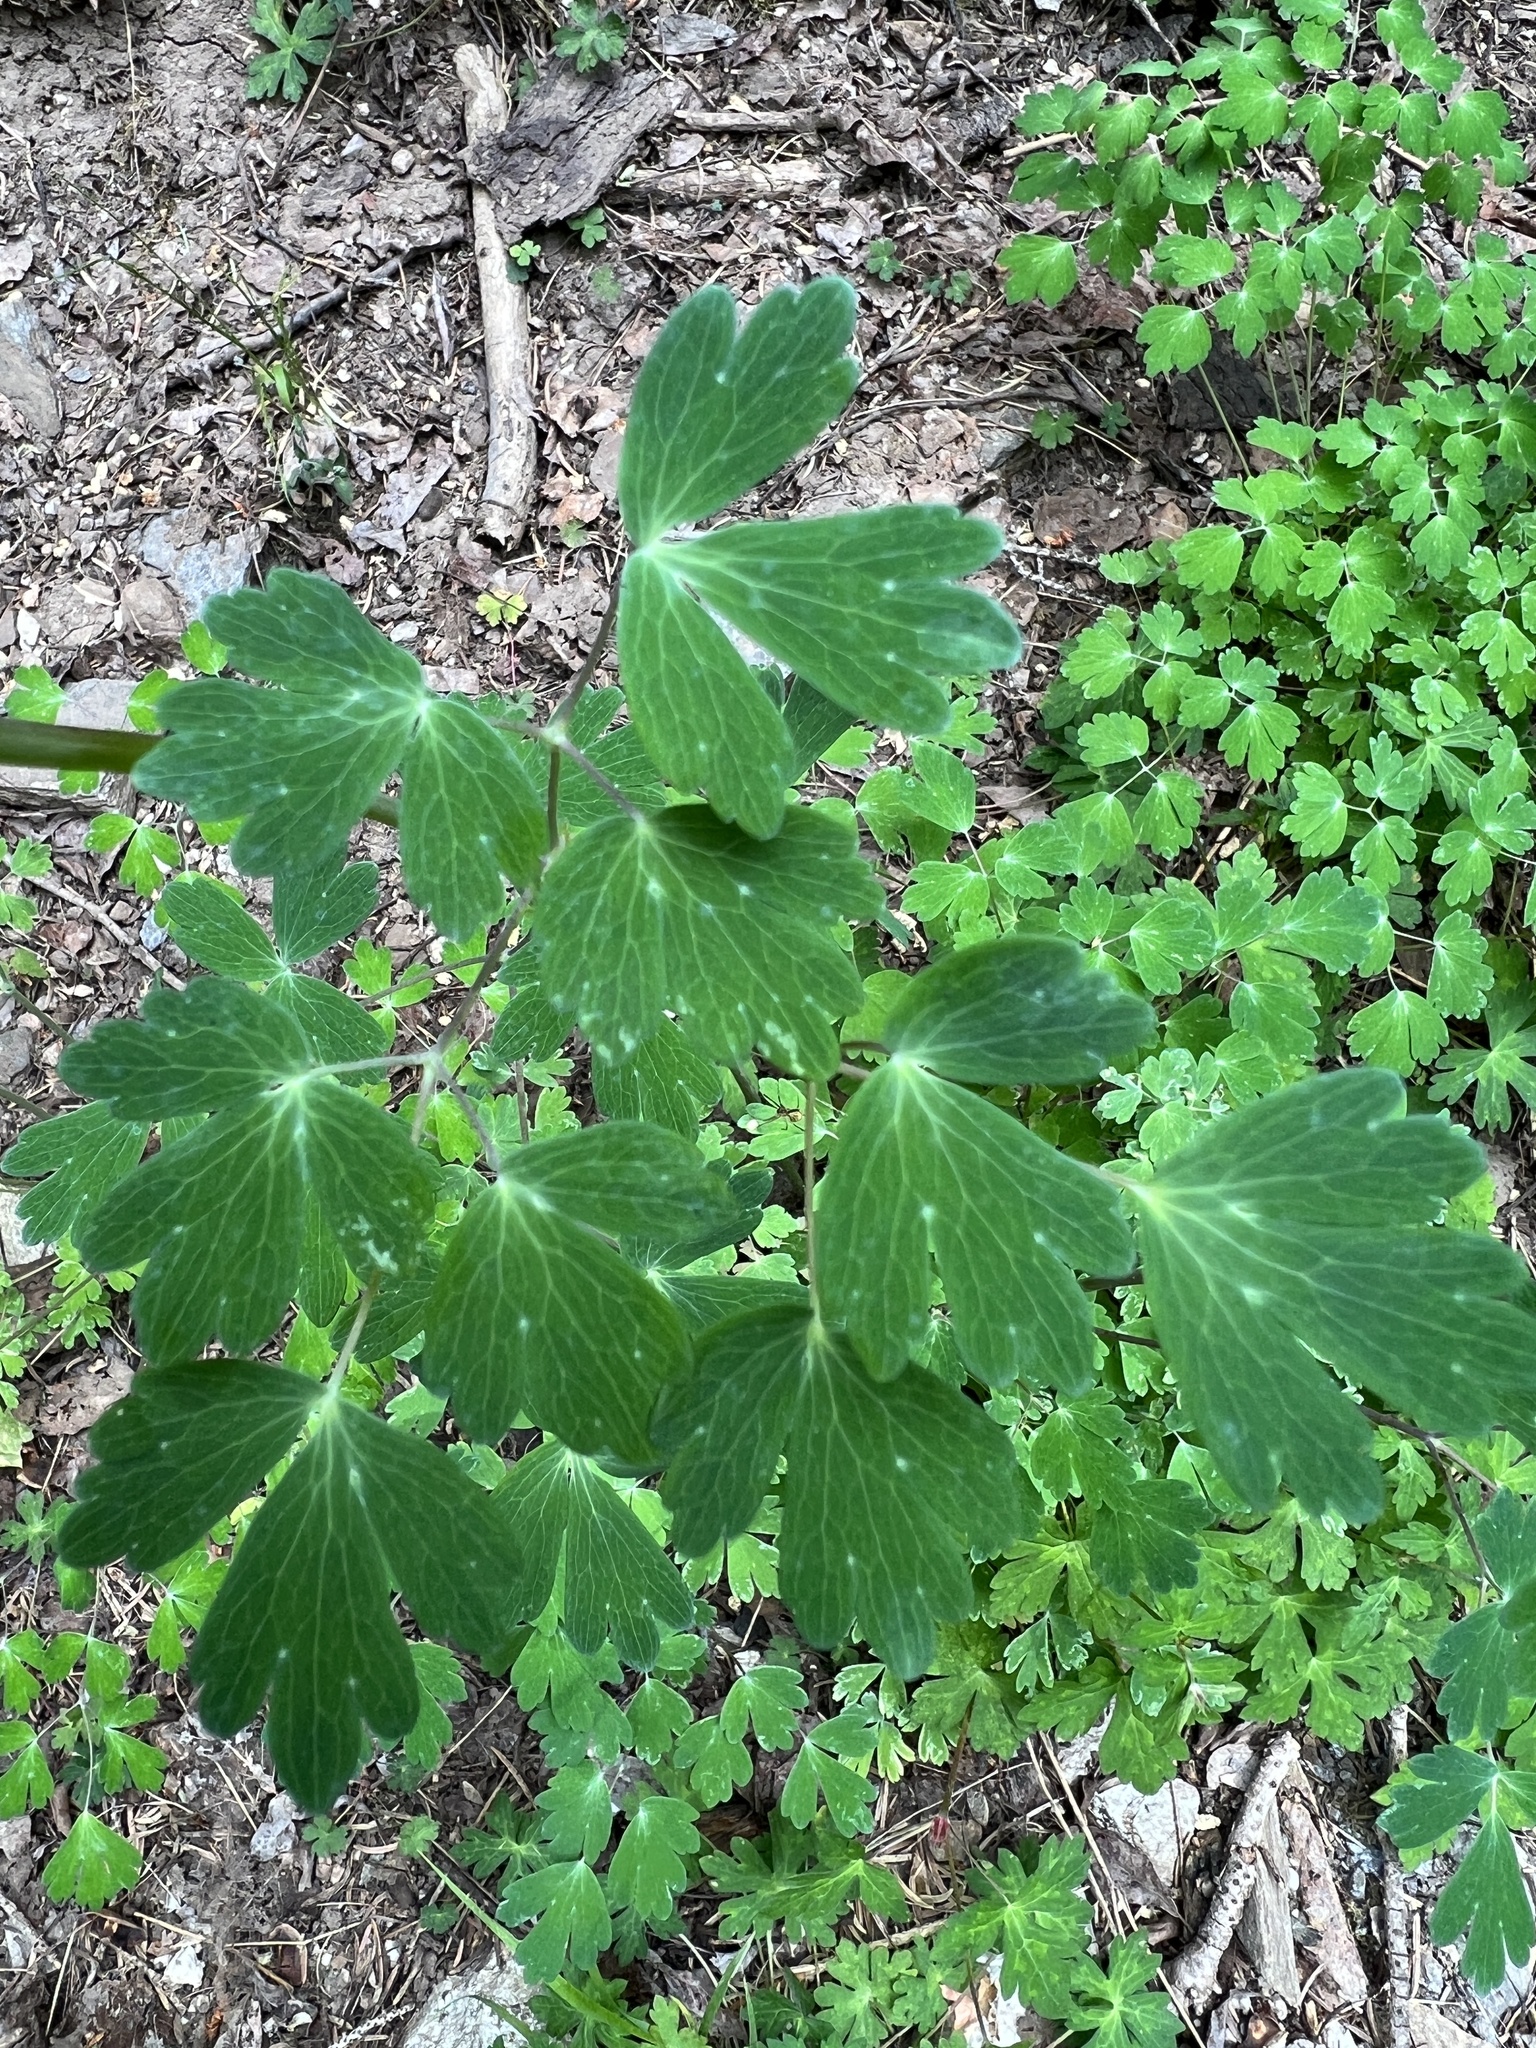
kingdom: Plantae
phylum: Tracheophyta
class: Magnoliopsida
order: Ranunculales
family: Ranunculaceae
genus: Aquilegia
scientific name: Aquilegia chrysantha
